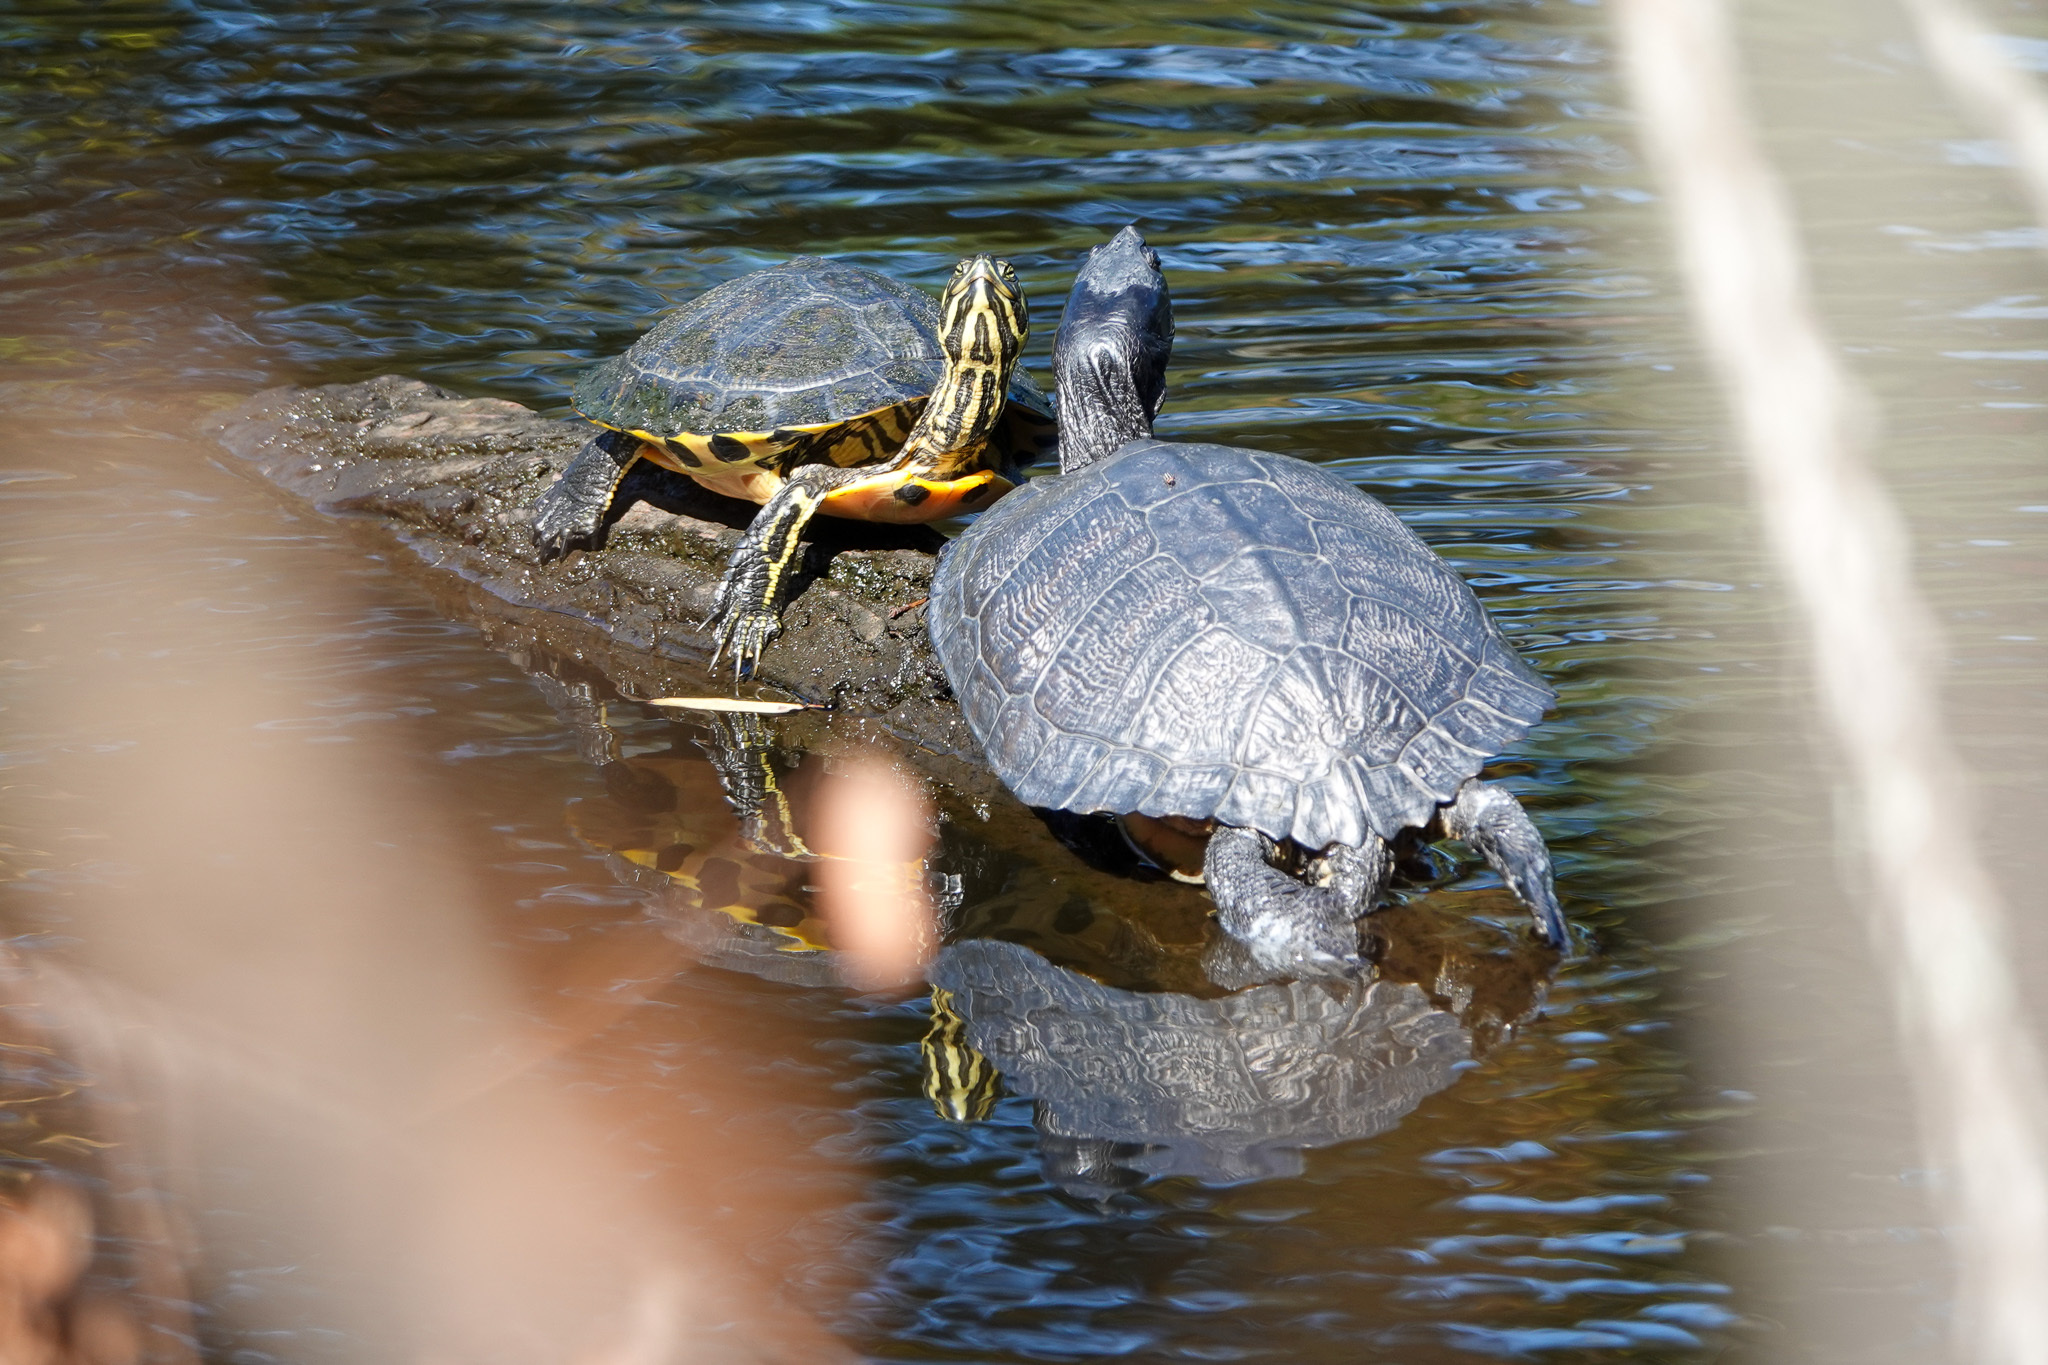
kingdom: Animalia
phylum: Chordata
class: Testudines
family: Emydidae
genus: Trachemys
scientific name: Trachemys scripta
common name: Slider
